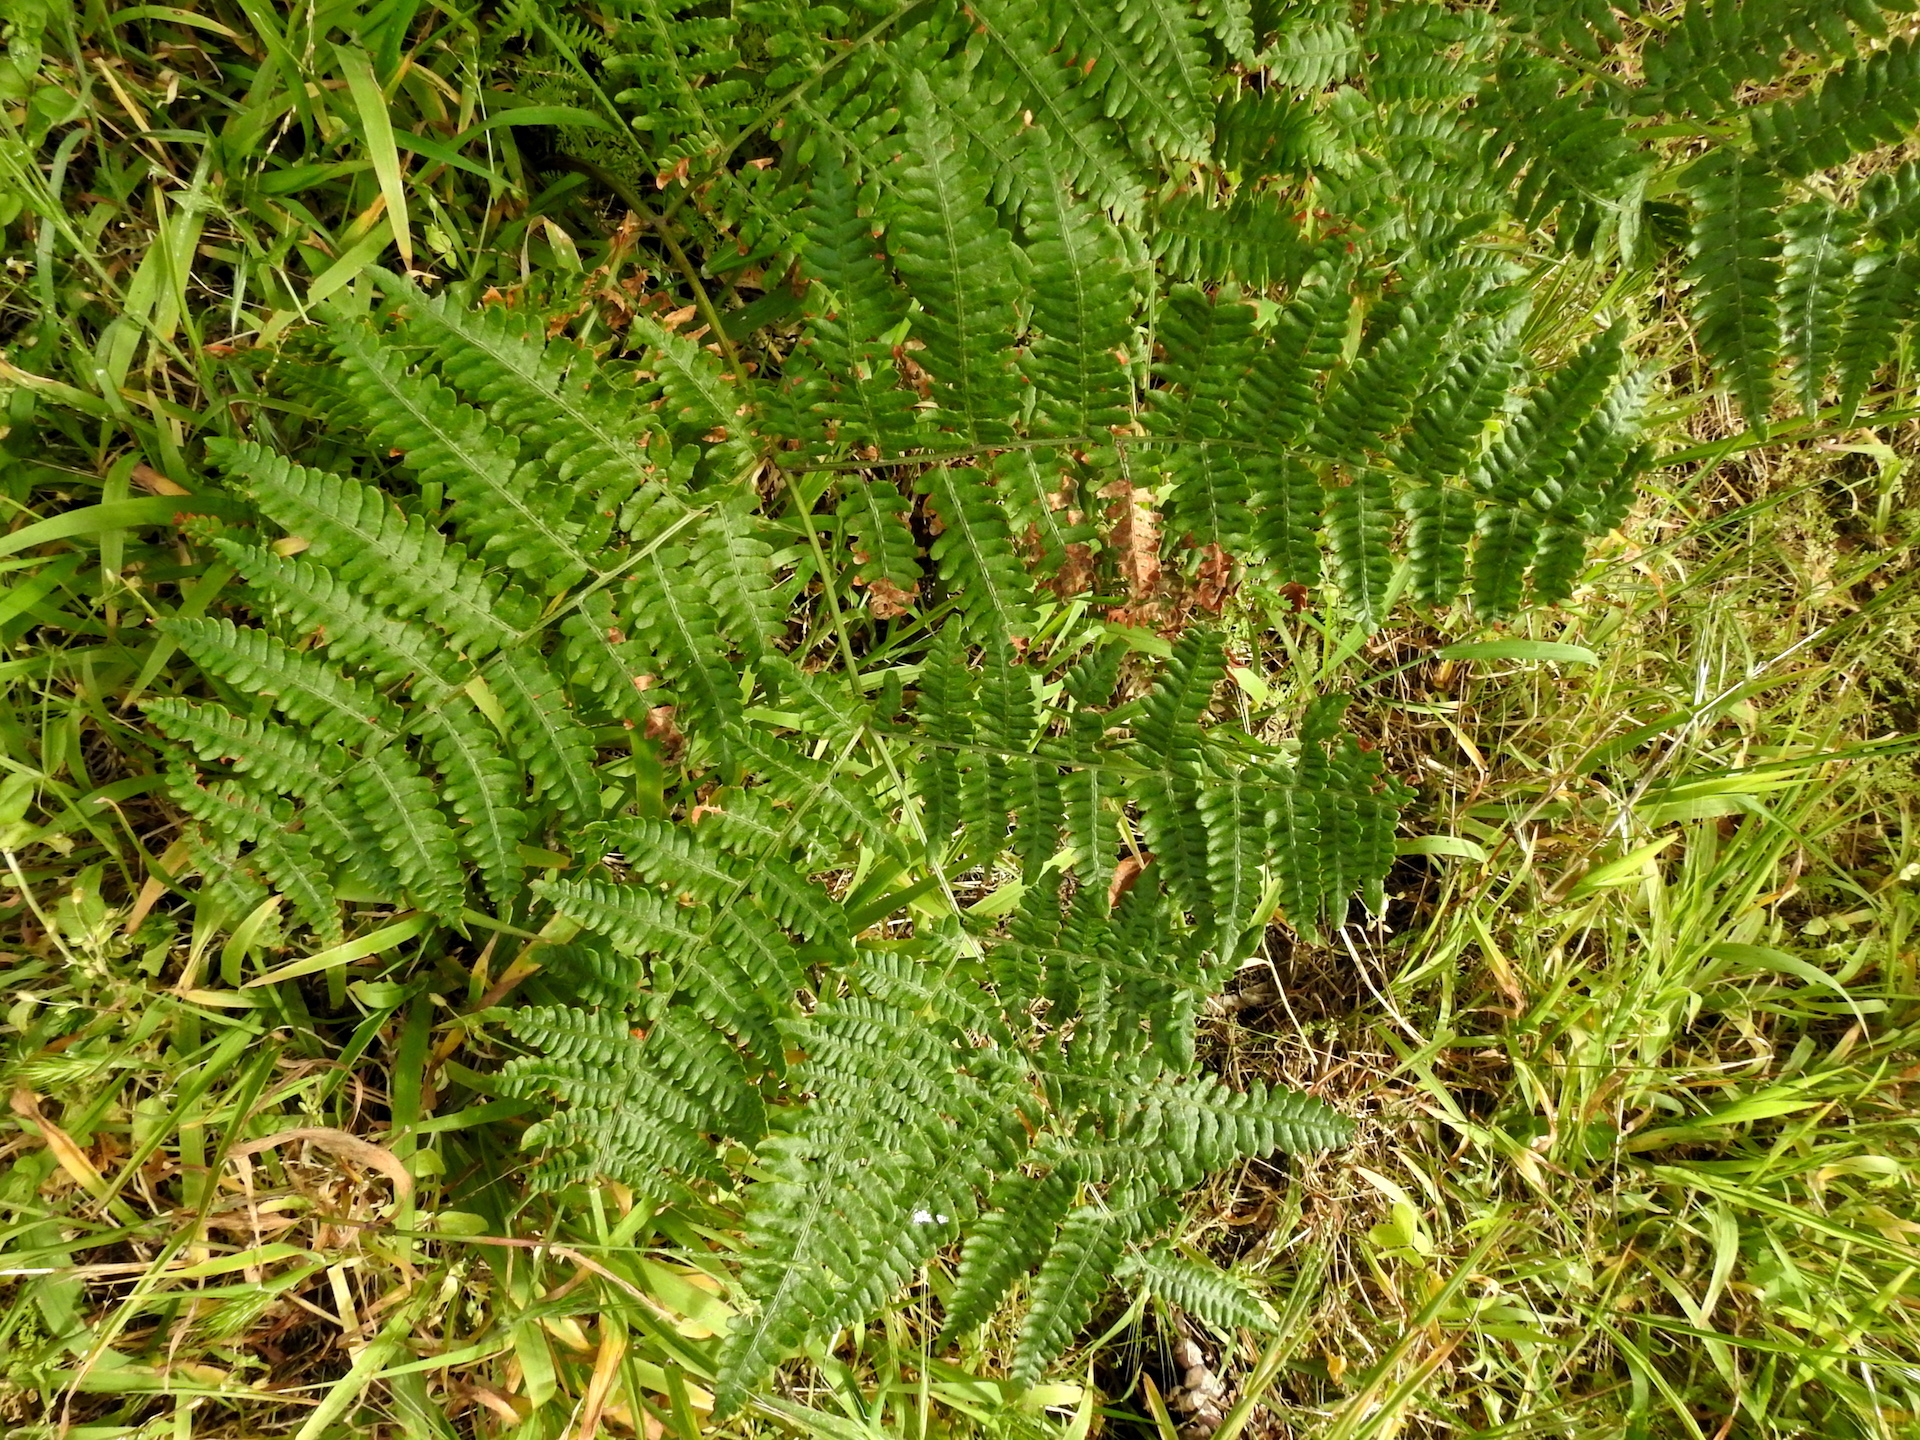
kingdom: Plantae
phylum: Tracheophyta
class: Polypodiopsida
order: Polypodiales
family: Dennstaedtiaceae
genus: Pteridium
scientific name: Pteridium aquilinum
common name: Bracken
